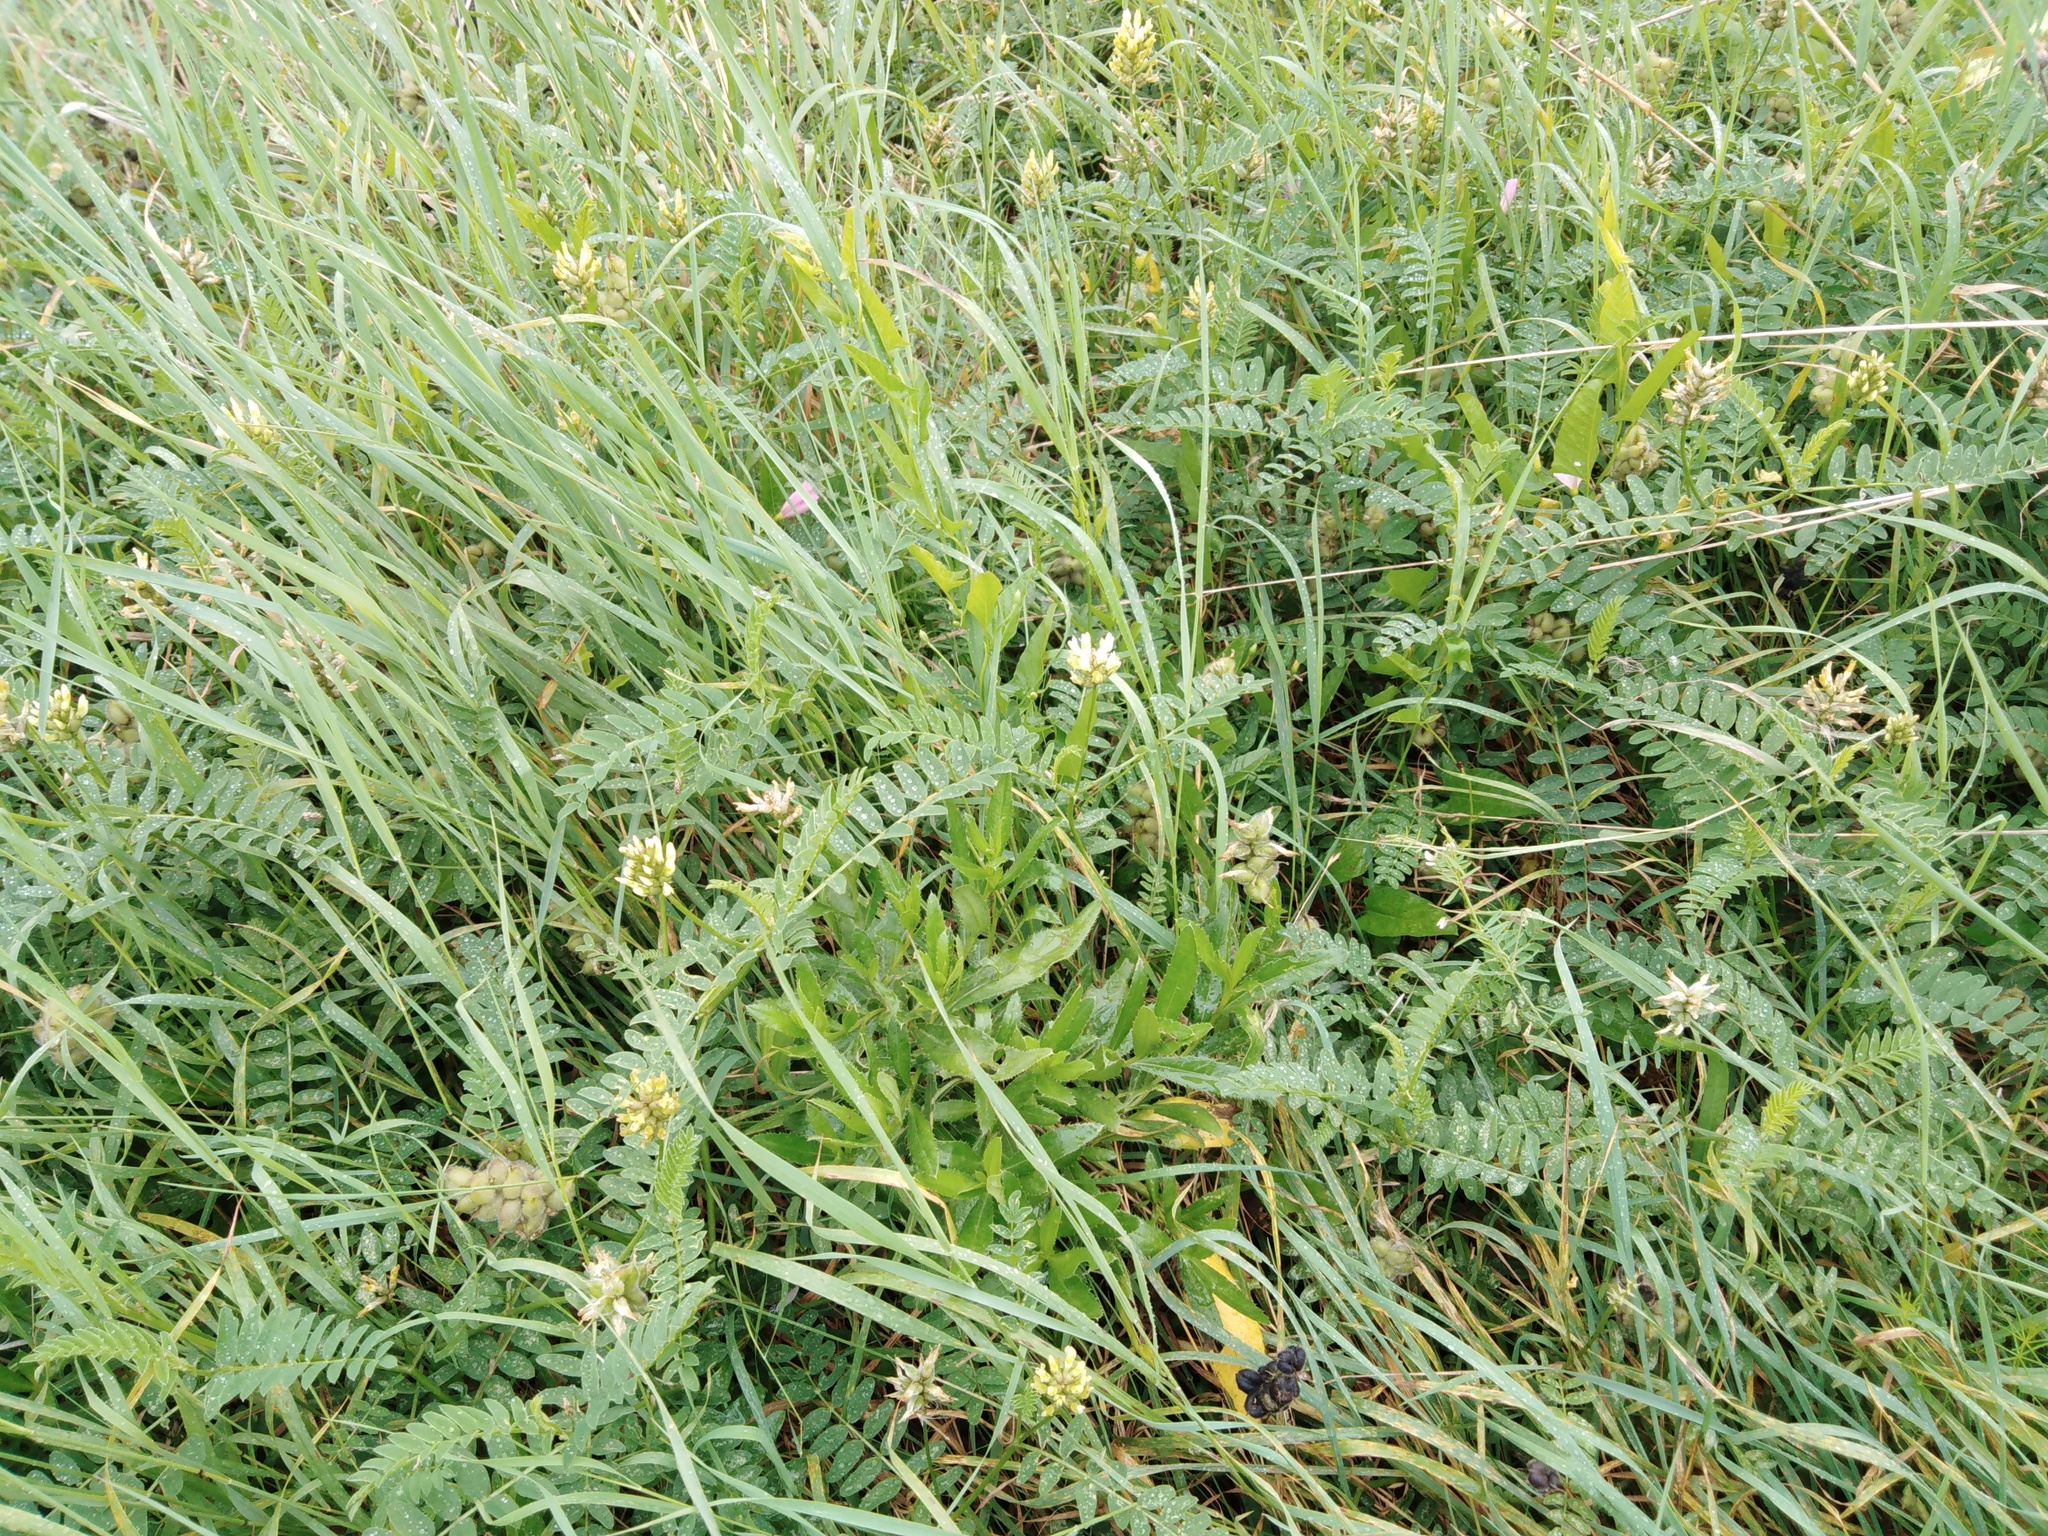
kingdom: Plantae
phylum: Tracheophyta
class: Magnoliopsida
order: Fabales
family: Fabaceae
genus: Astragalus
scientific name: Astragalus cicer
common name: Chick-pea milk-vetch
